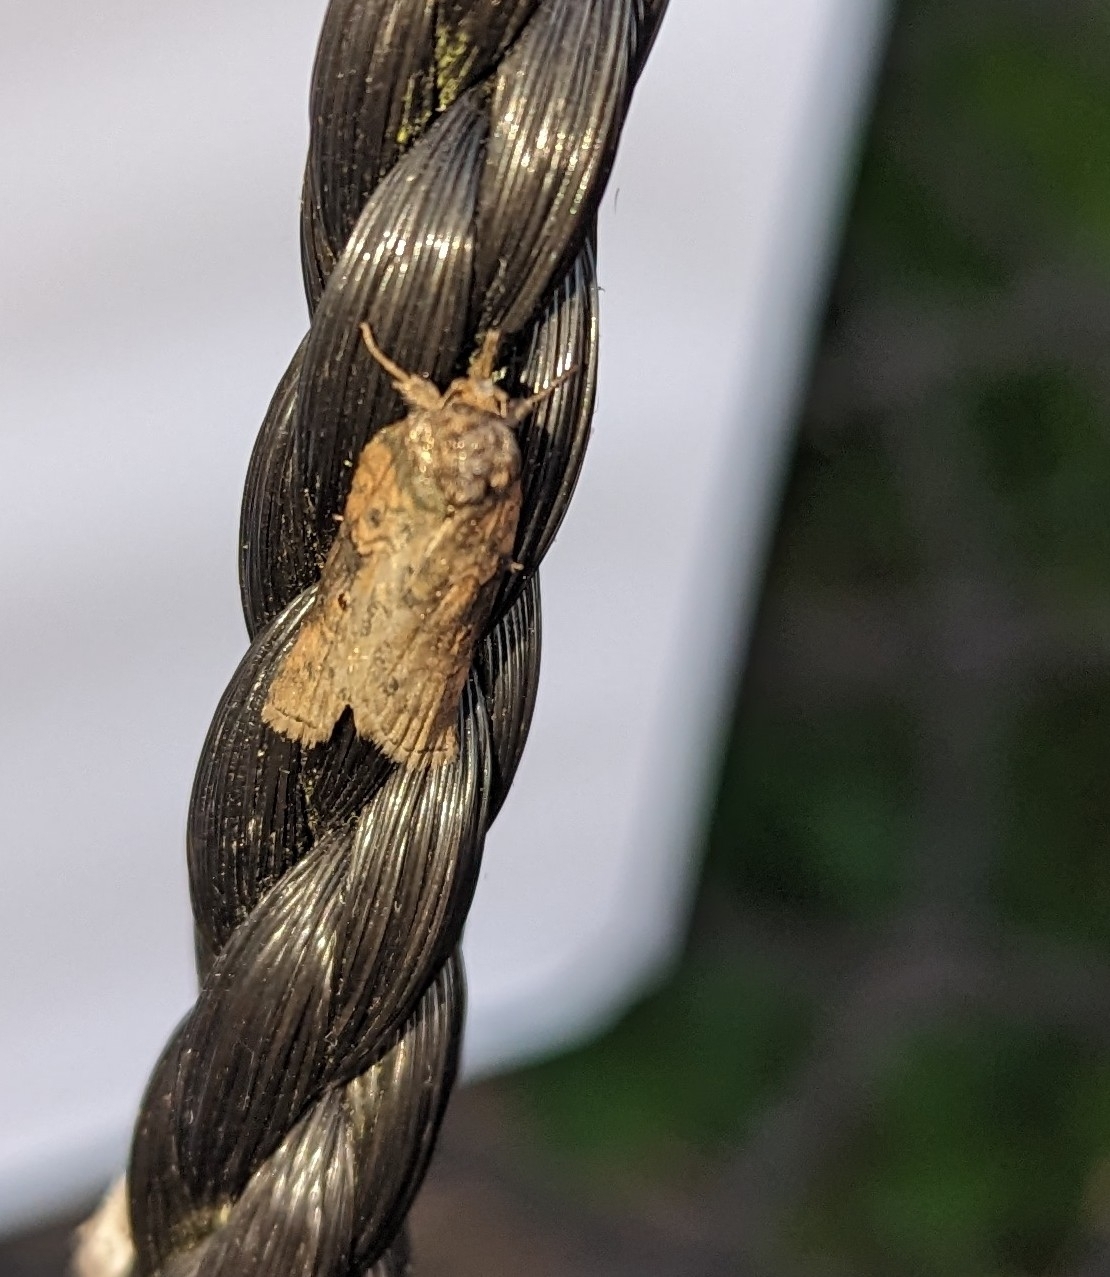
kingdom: Animalia
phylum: Arthropoda
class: Insecta
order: Lepidoptera
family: Nolidae
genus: Nycteola
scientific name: Nycteola revayana
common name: Oak nycteoline
